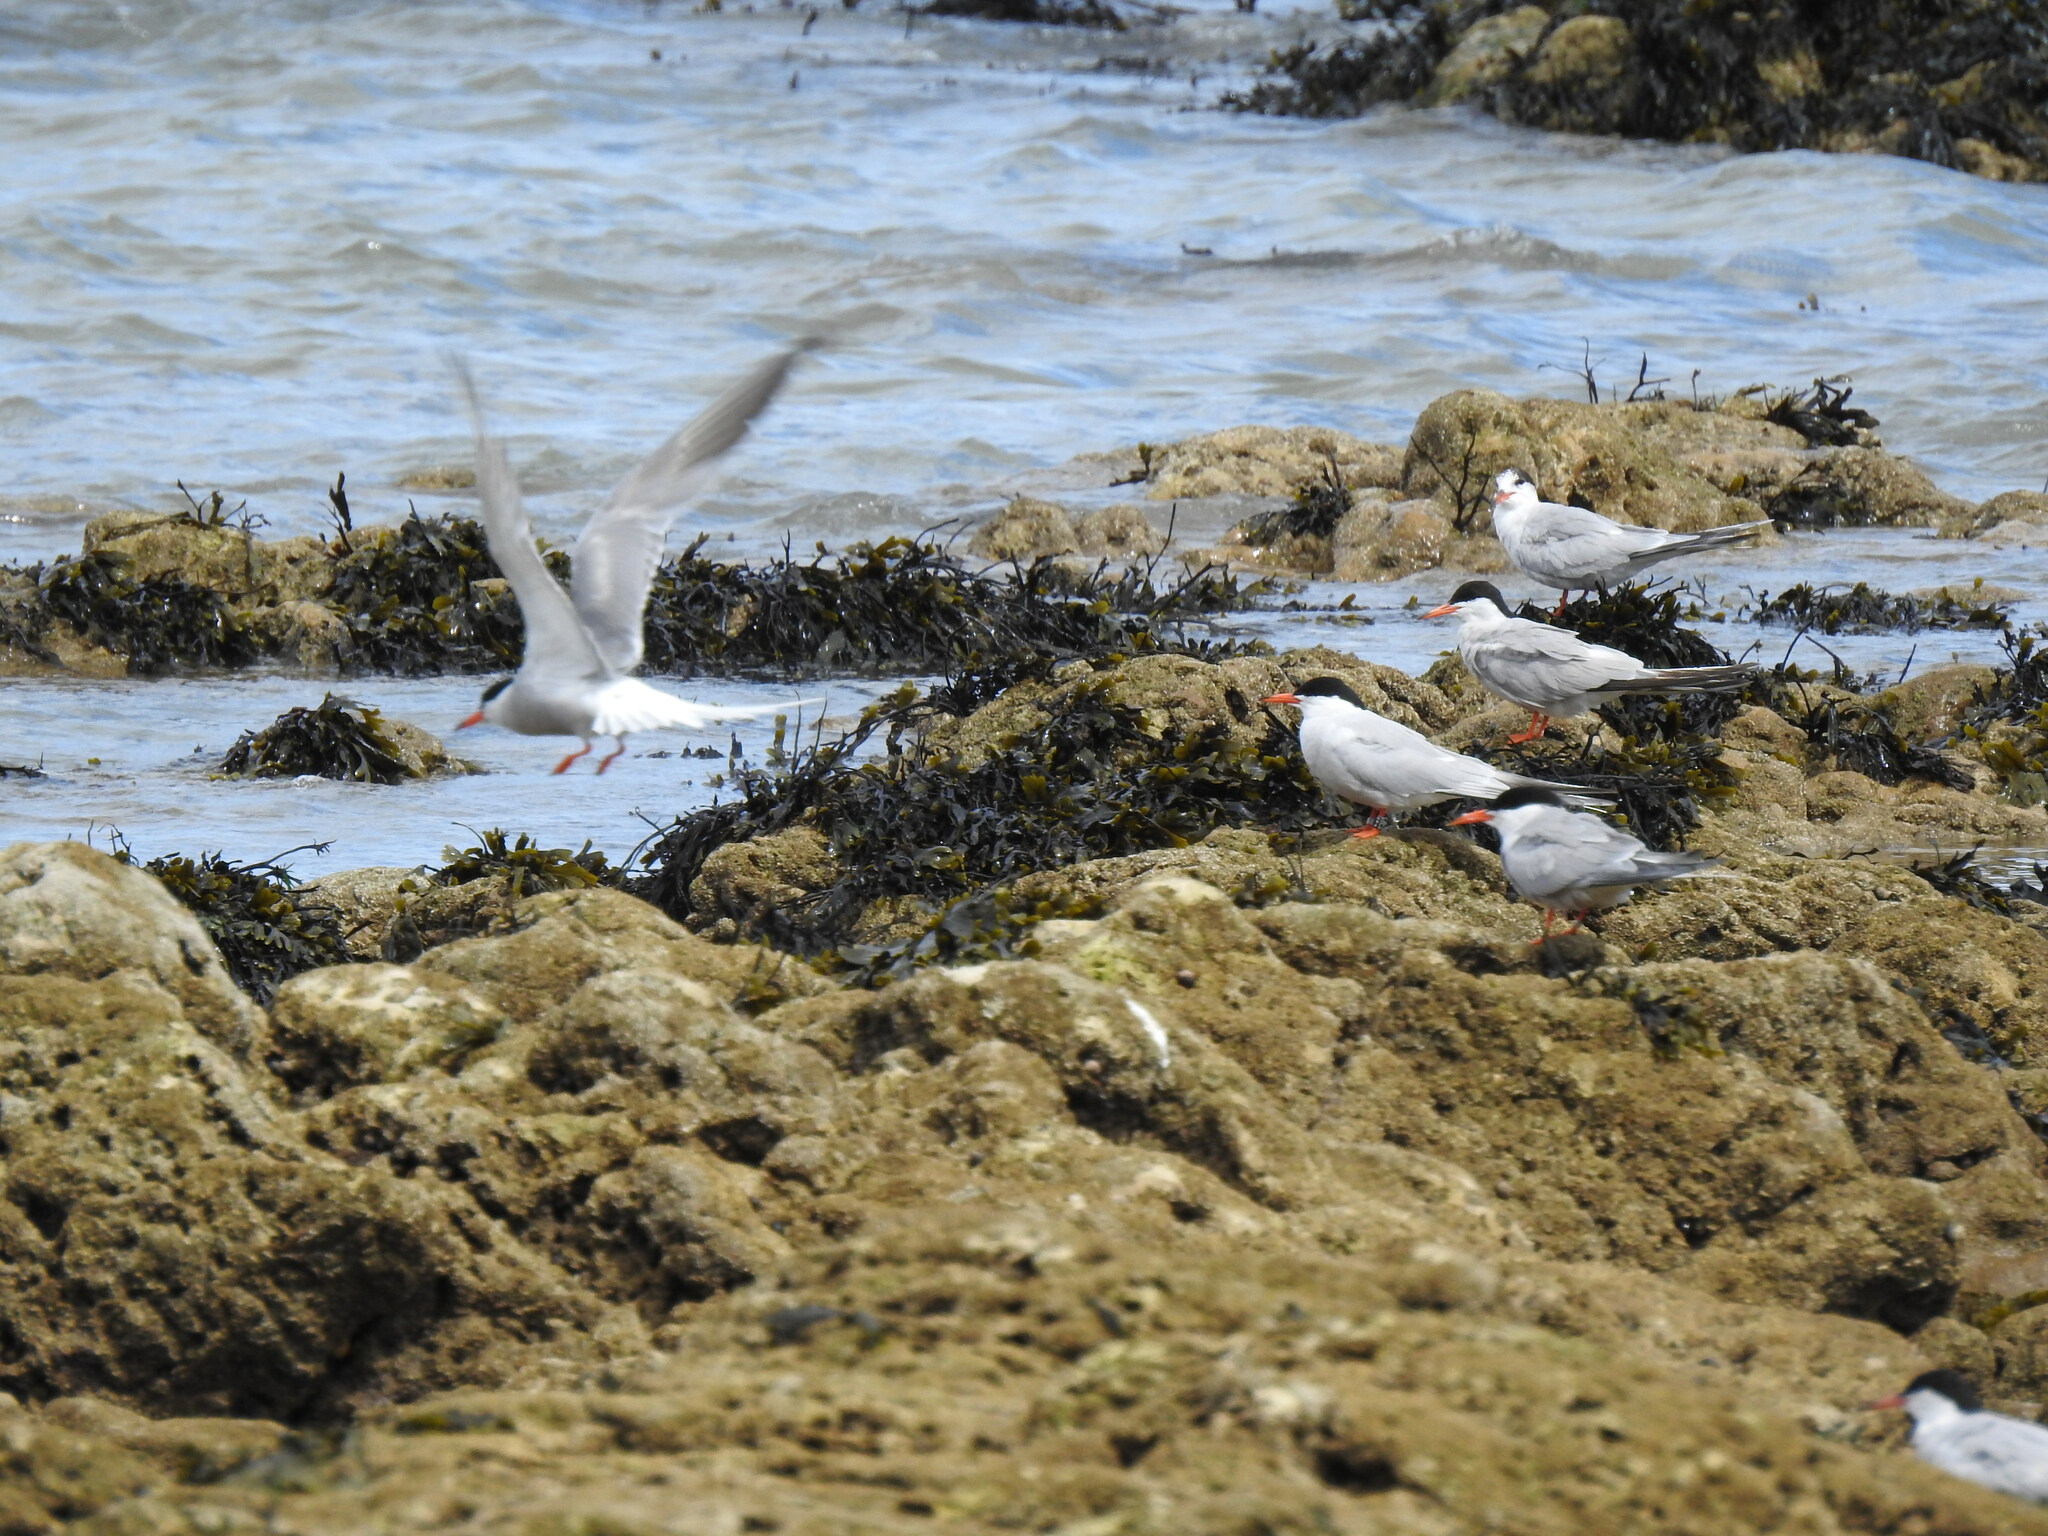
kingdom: Animalia
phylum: Chordata
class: Aves
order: Charadriiformes
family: Laridae
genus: Sterna
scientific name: Sterna hirundo
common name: Common tern
